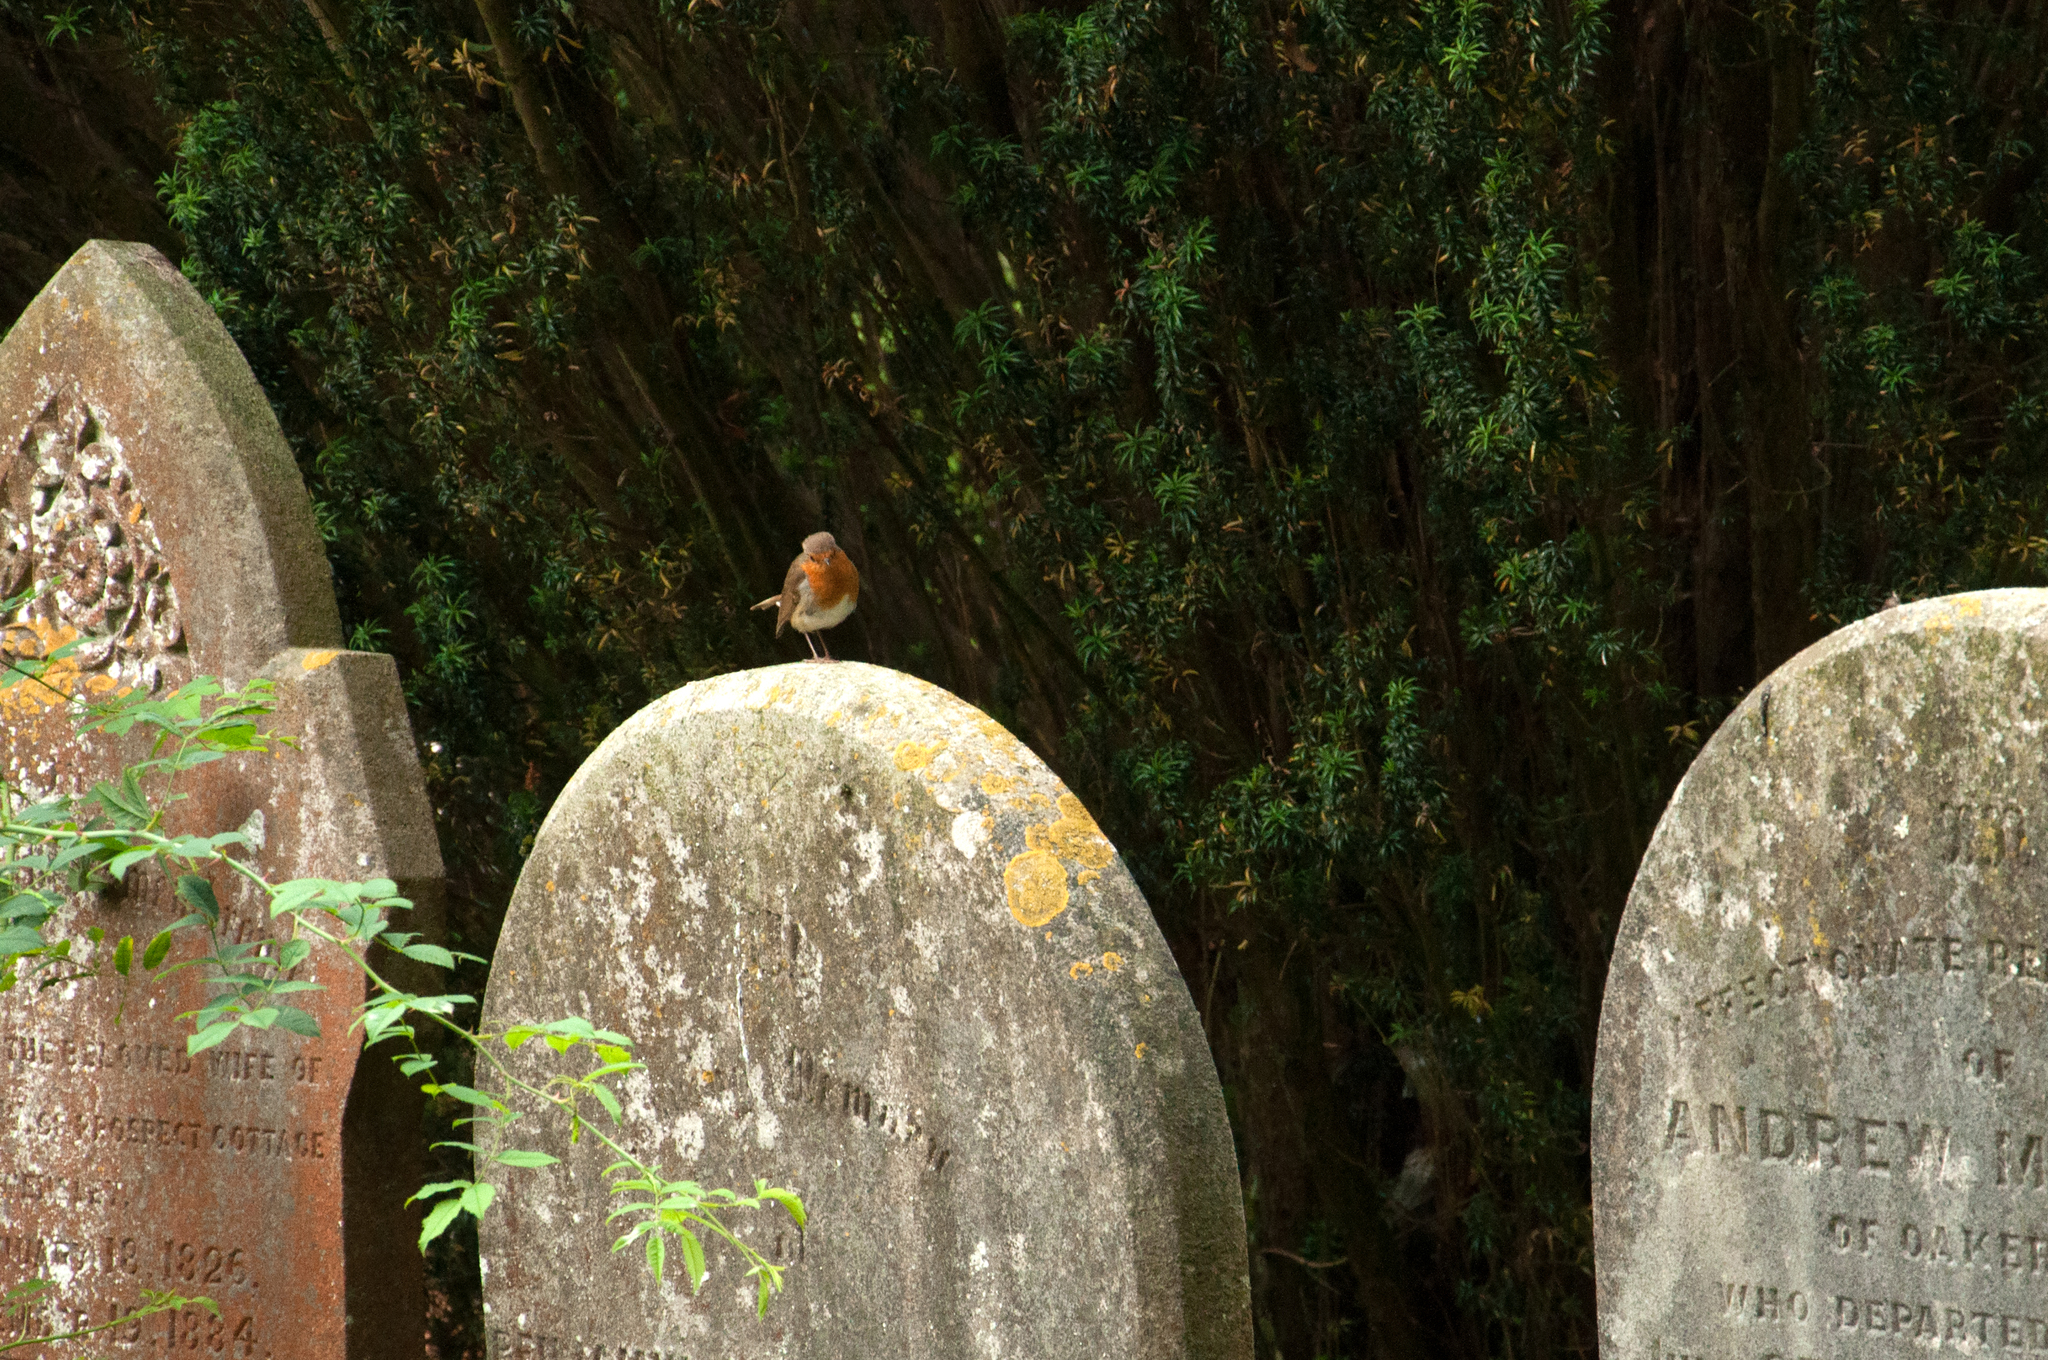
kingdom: Animalia
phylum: Chordata
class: Aves
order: Passeriformes
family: Muscicapidae
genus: Erithacus
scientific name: Erithacus rubecula
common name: European robin
